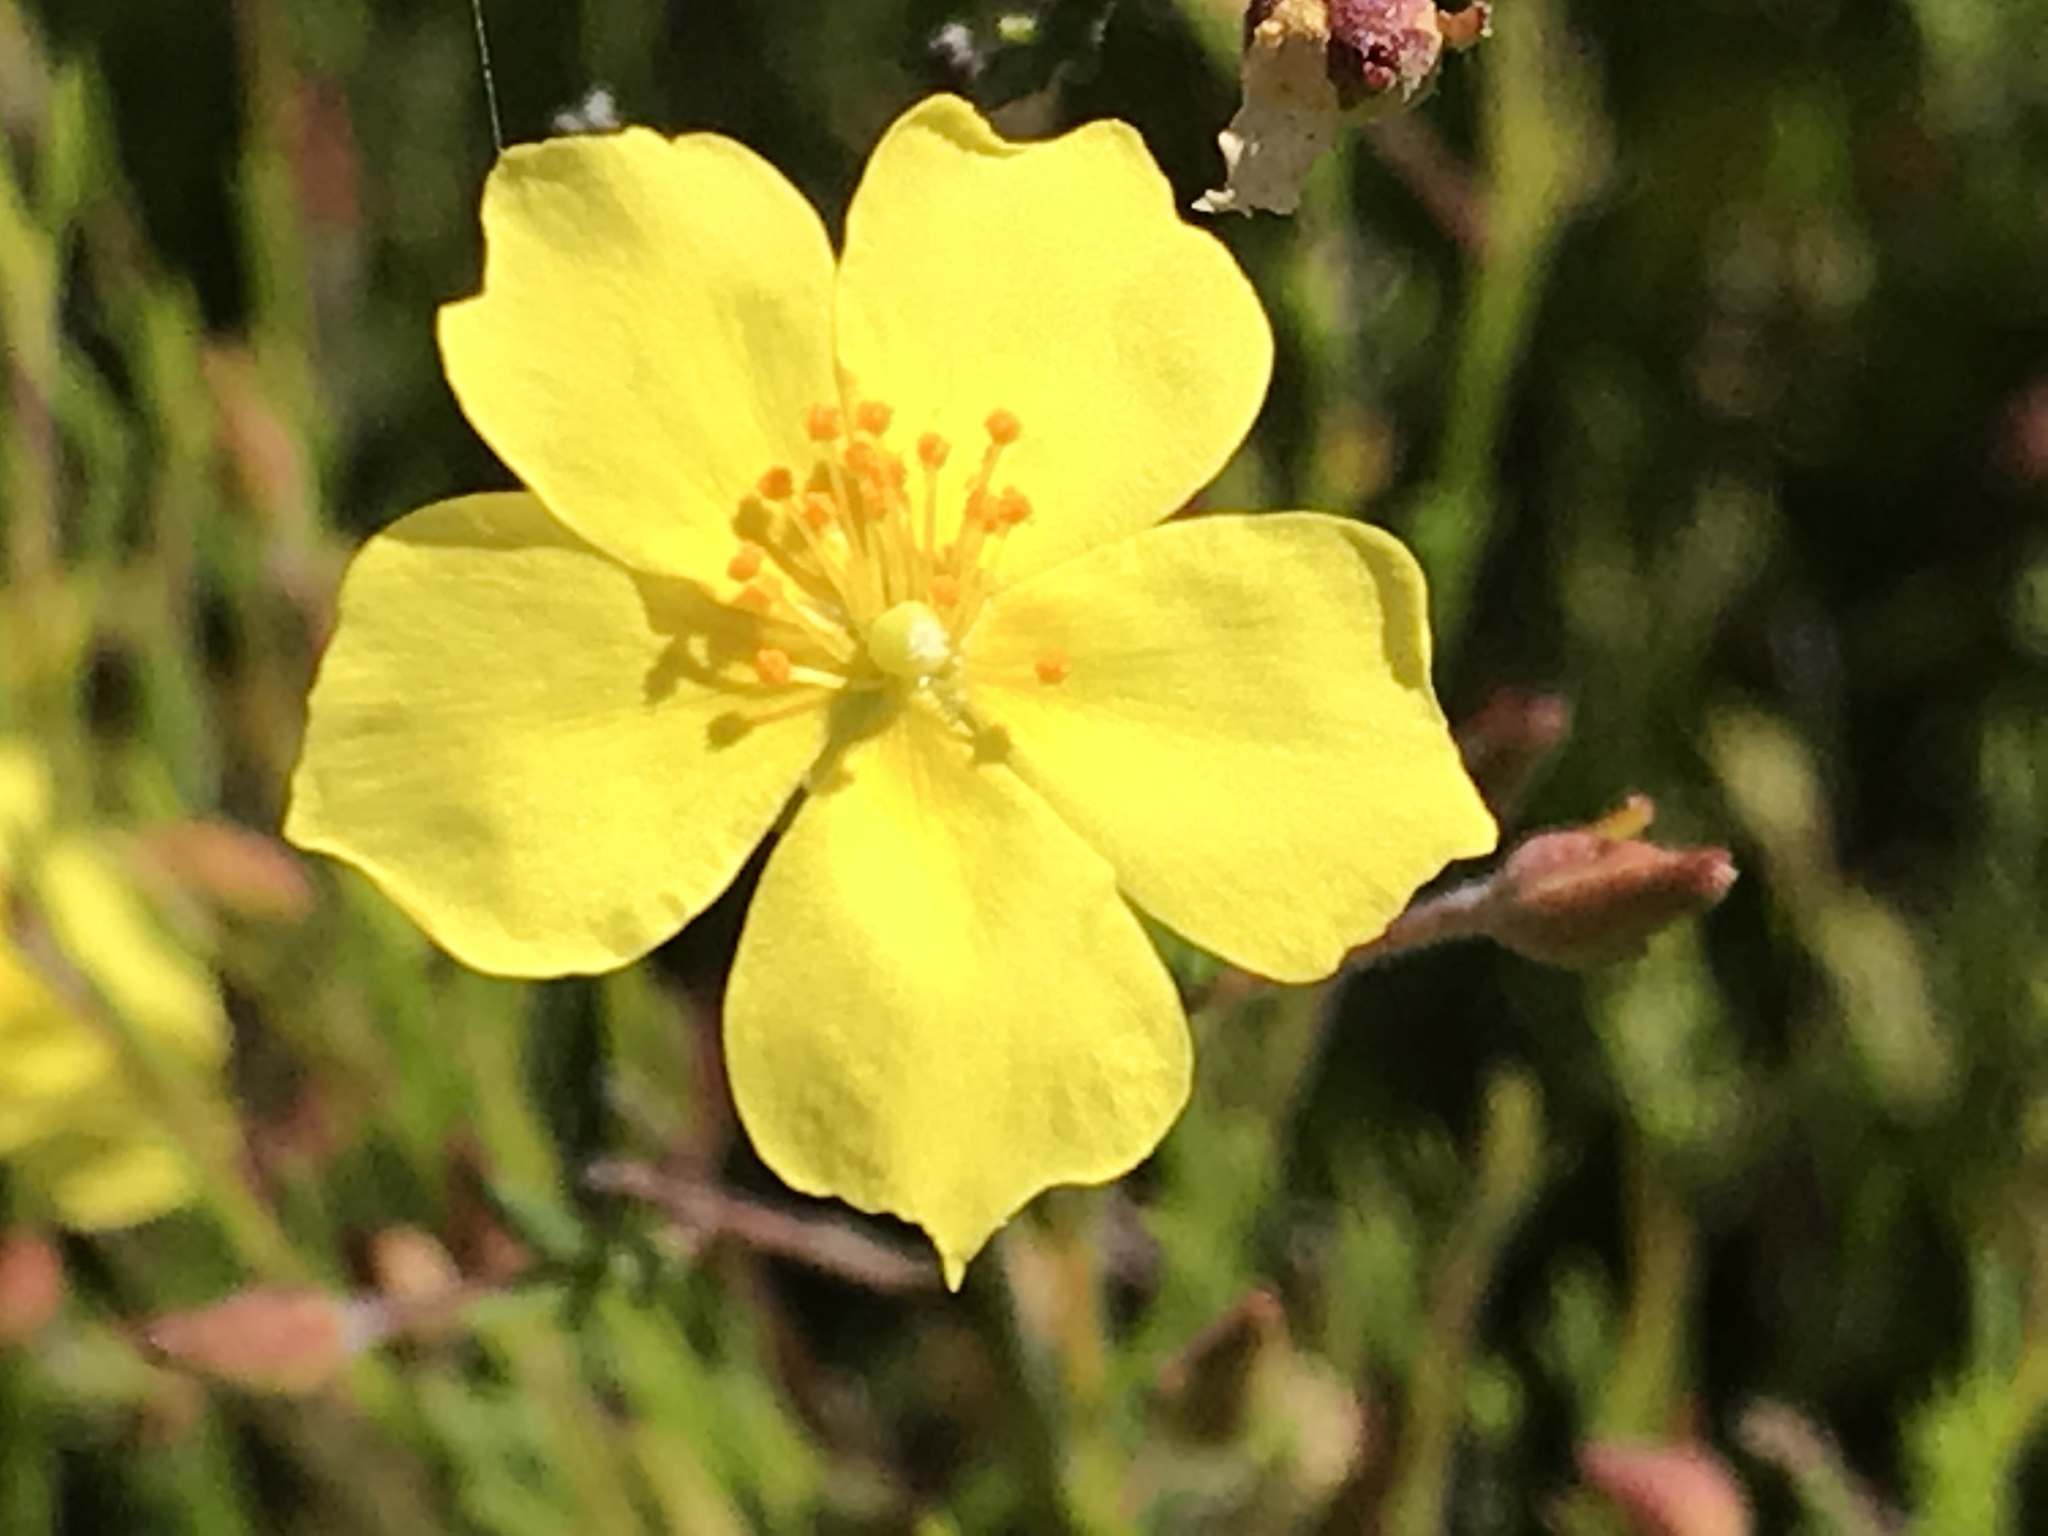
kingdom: Plantae
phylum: Tracheophyta
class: Magnoliopsida
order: Malvales
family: Cistaceae
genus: Crocanthemum
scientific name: Crocanthemum scoparium
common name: Broom-rose
